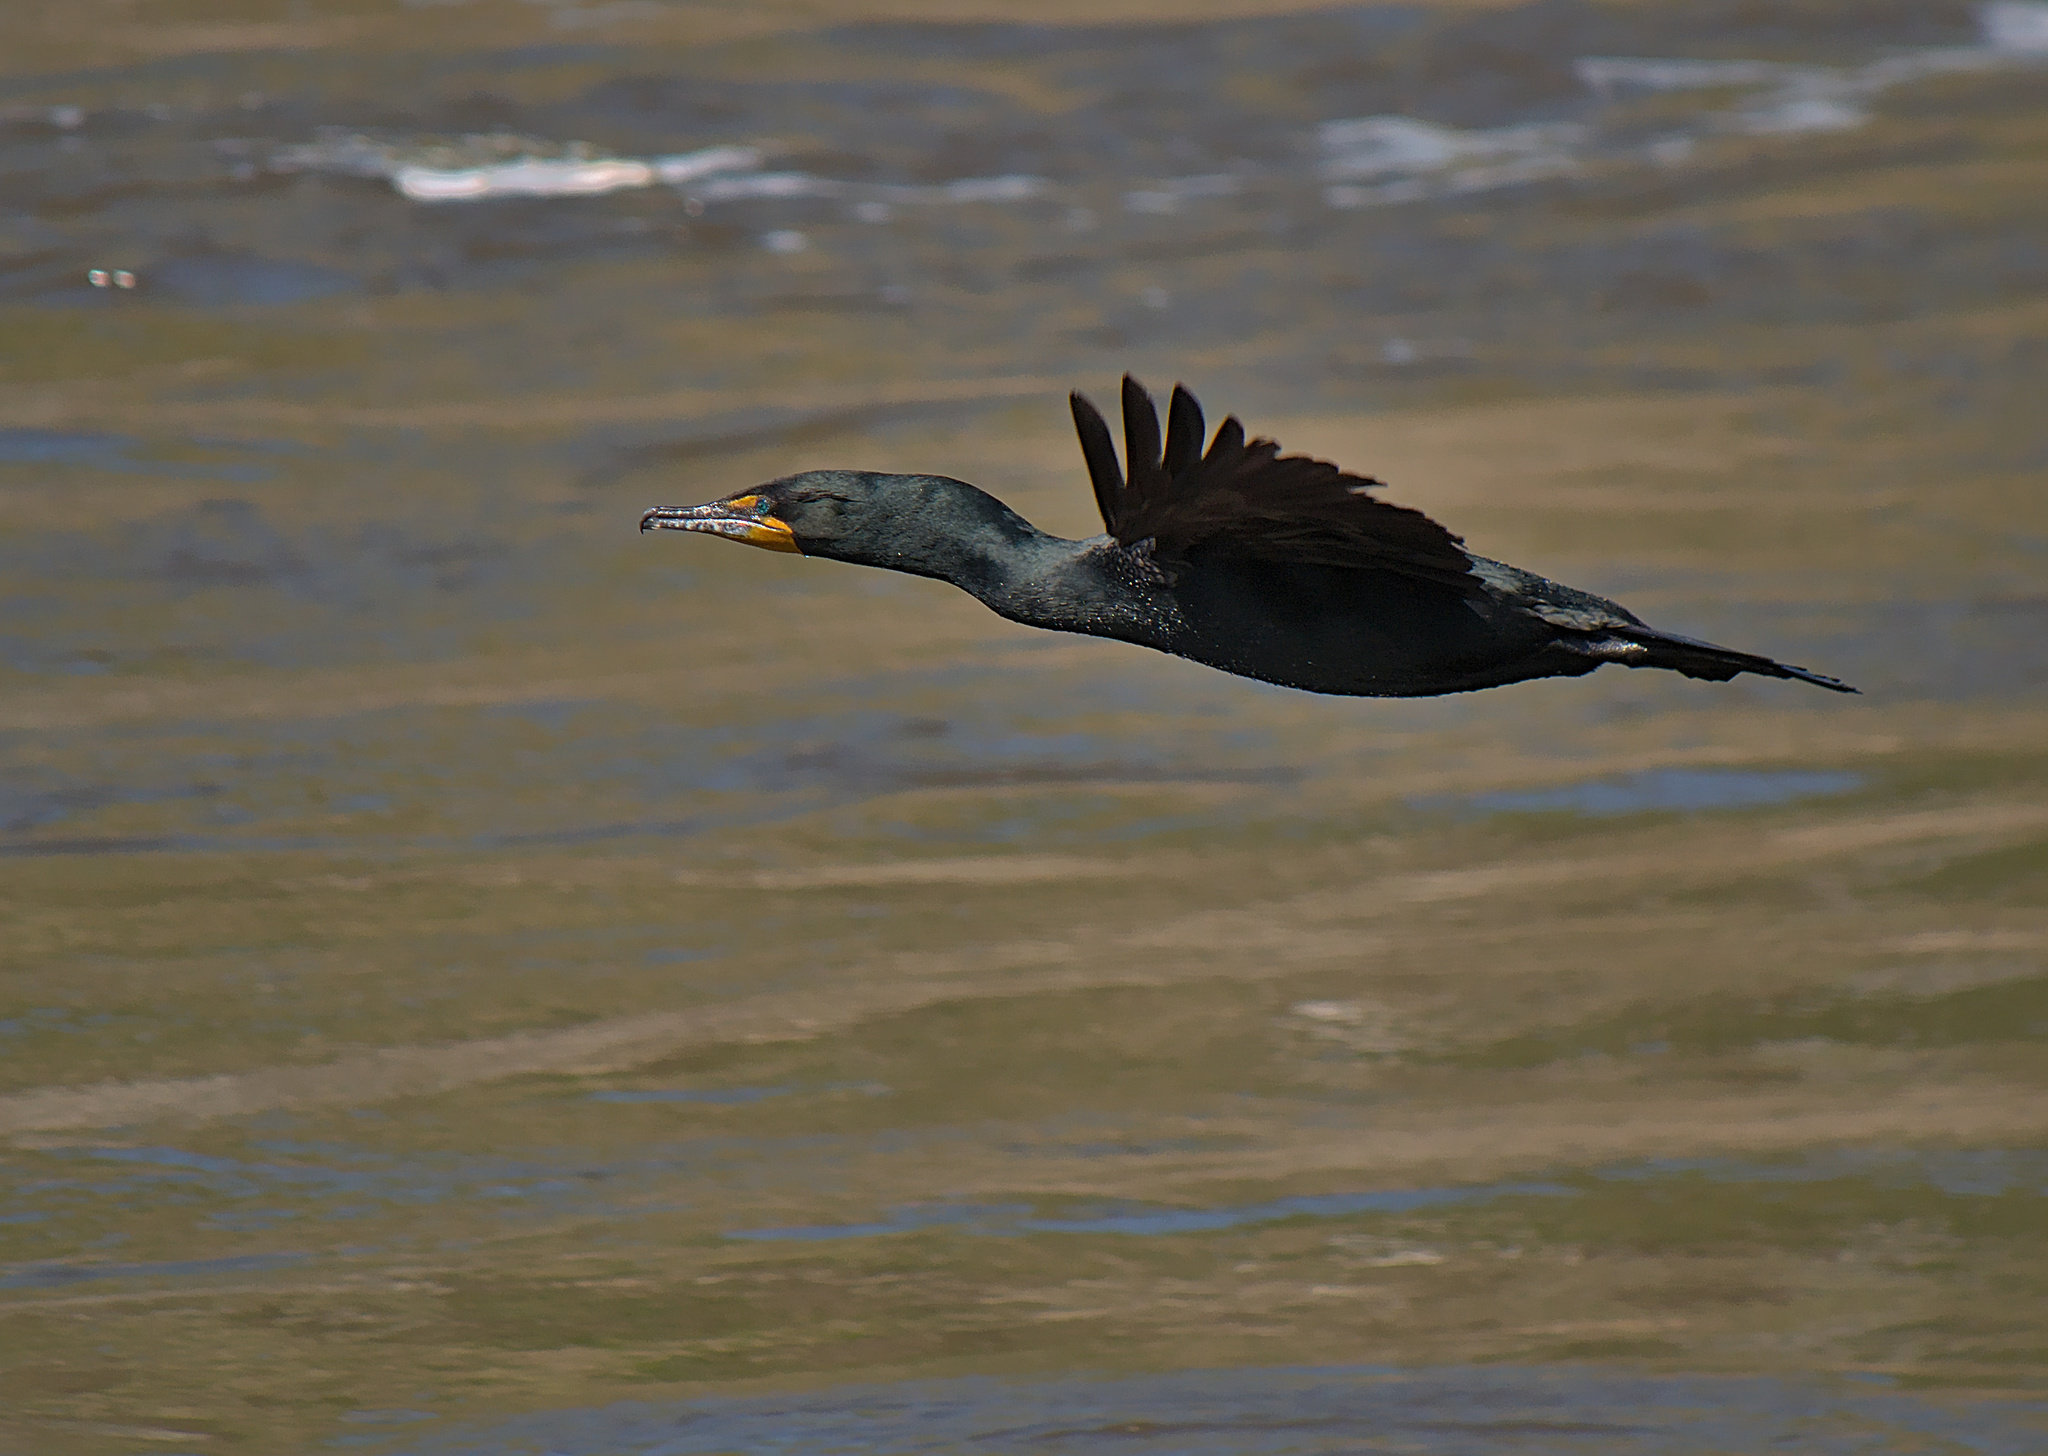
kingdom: Animalia
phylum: Chordata
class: Aves
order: Suliformes
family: Phalacrocoracidae
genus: Phalacrocorax
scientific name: Phalacrocorax auritus
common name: Double-crested cormorant
